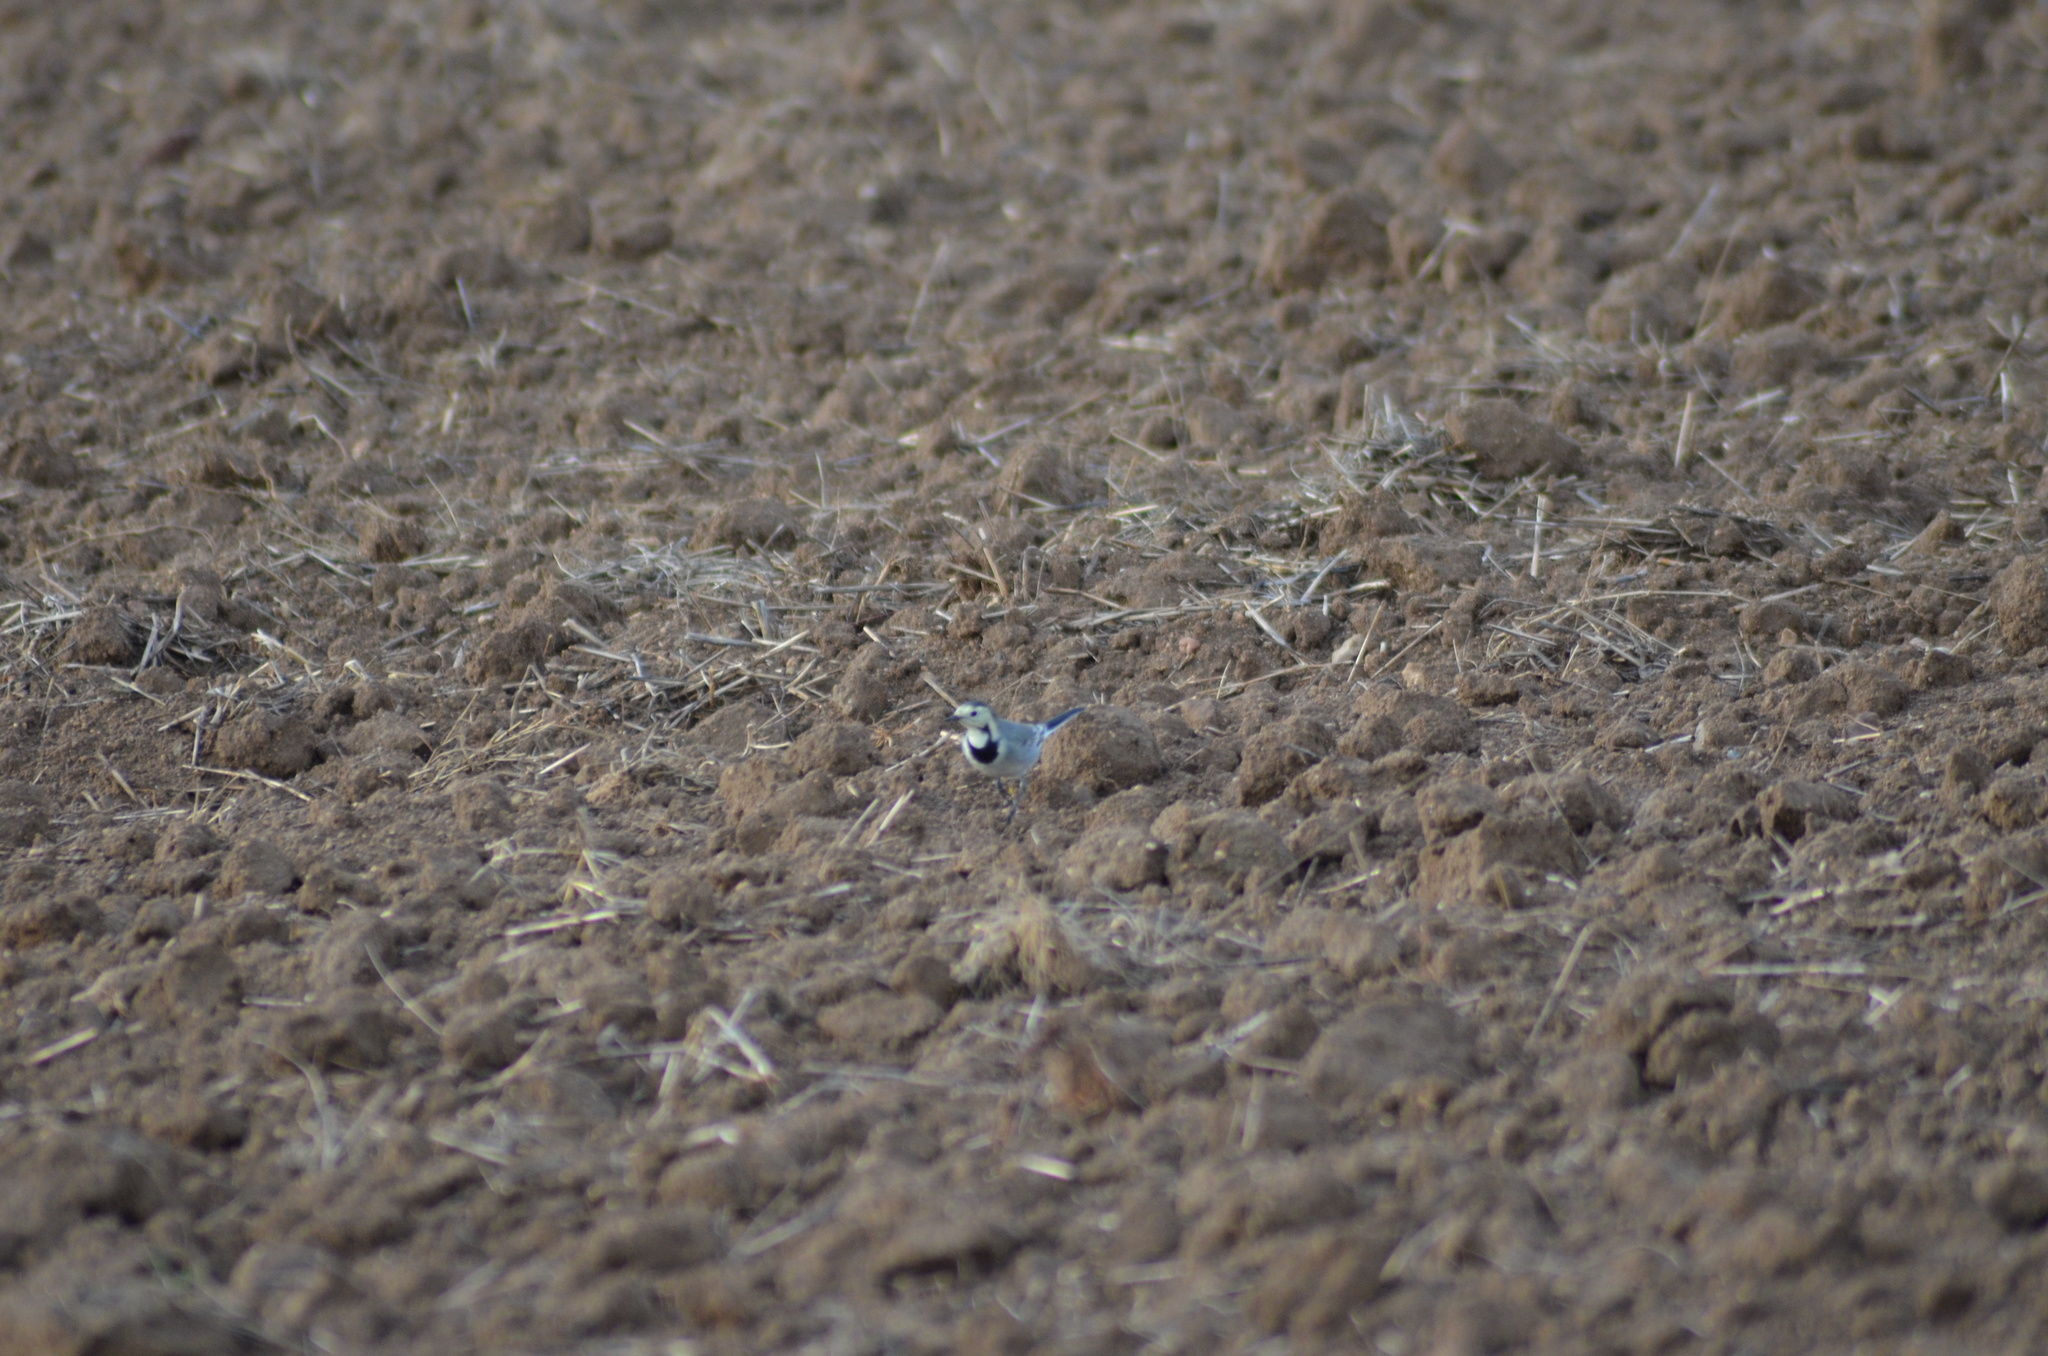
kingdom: Animalia
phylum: Chordata
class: Aves
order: Passeriformes
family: Motacillidae
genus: Motacilla
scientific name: Motacilla alba
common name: White wagtail
